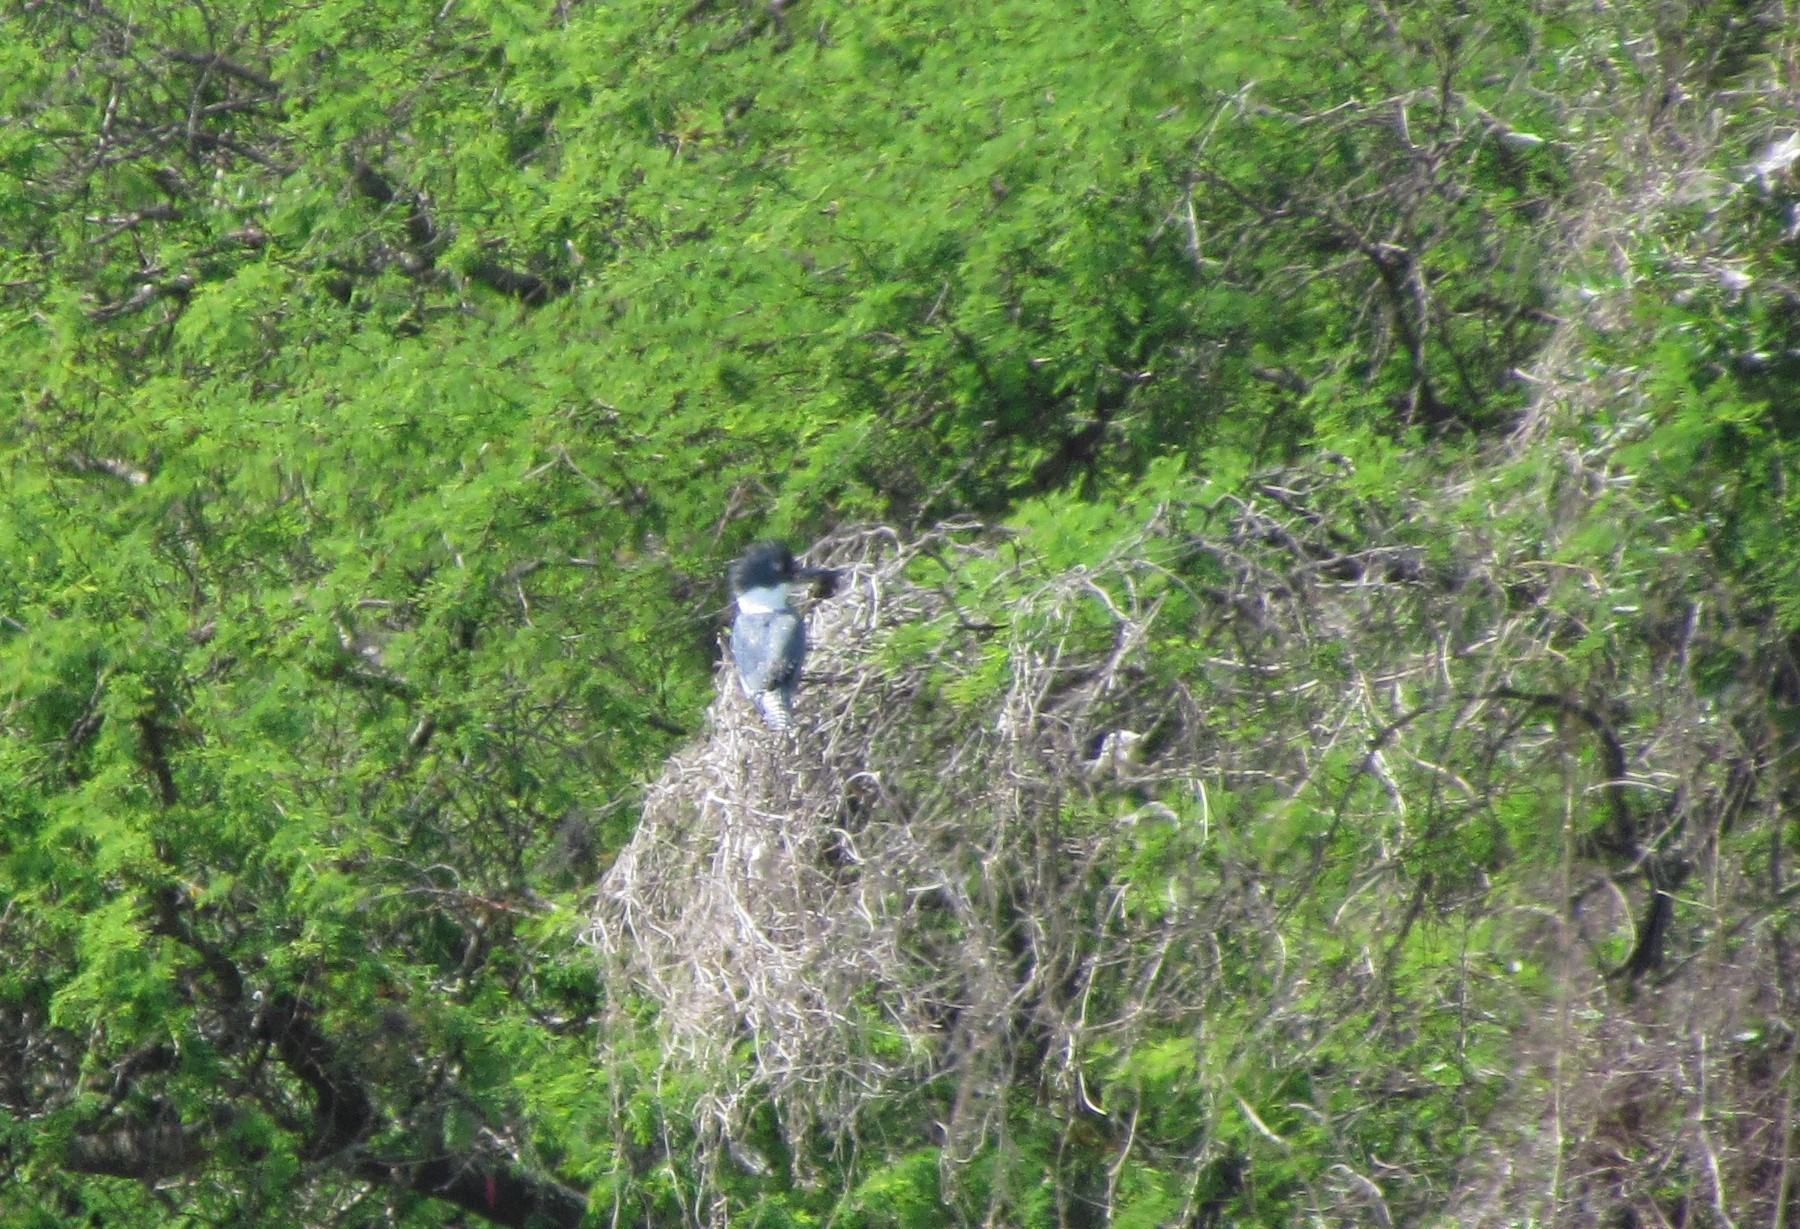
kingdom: Animalia
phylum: Chordata
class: Aves
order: Coraciiformes
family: Alcedinidae
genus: Megaceryle
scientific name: Megaceryle torquata
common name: Ringed kingfisher
